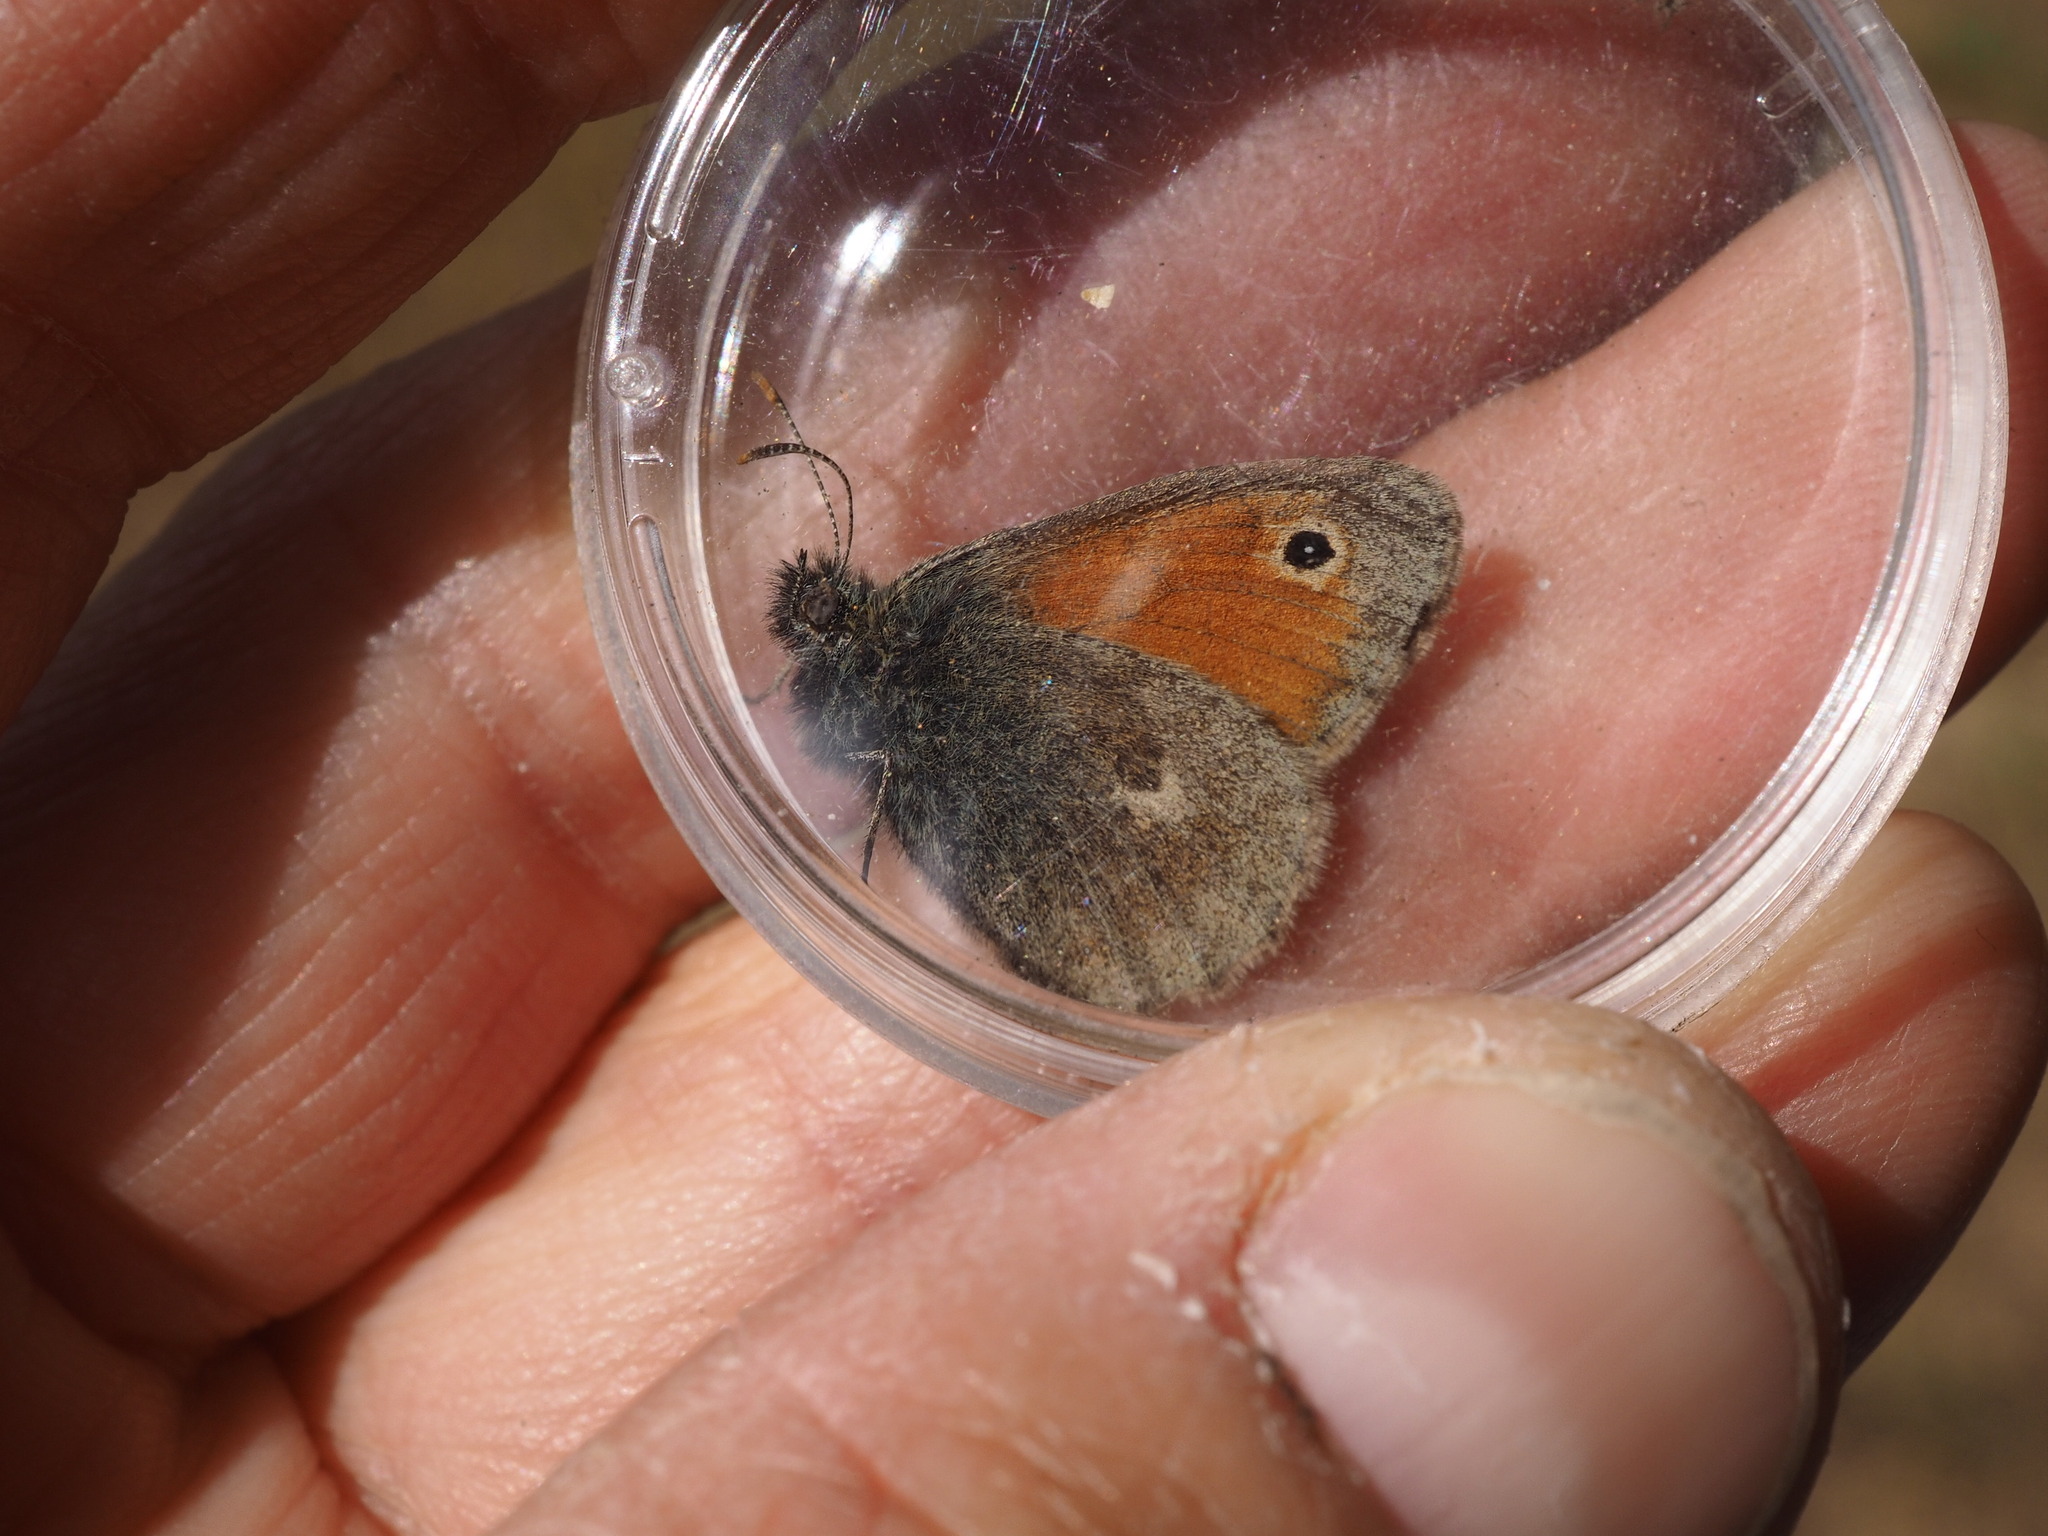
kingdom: Animalia
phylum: Arthropoda
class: Insecta
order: Lepidoptera
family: Nymphalidae
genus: Coenonympha
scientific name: Coenonympha pamphilus
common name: Small heath
